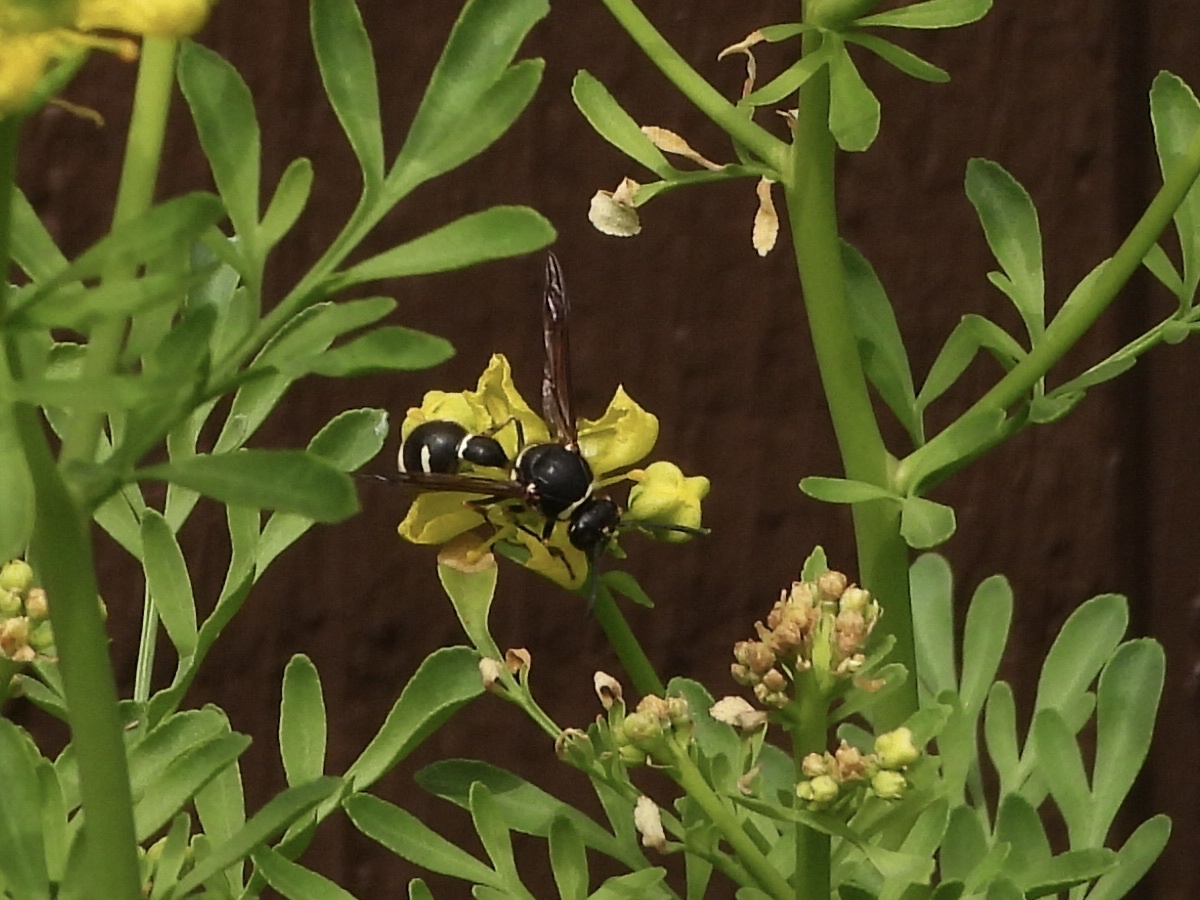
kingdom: Animalia
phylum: Arthropoda
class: Insecta
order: Hymenoptera
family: Vespidae
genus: Eumenes
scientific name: Eumenes crucifera
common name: Cross potter wasp
